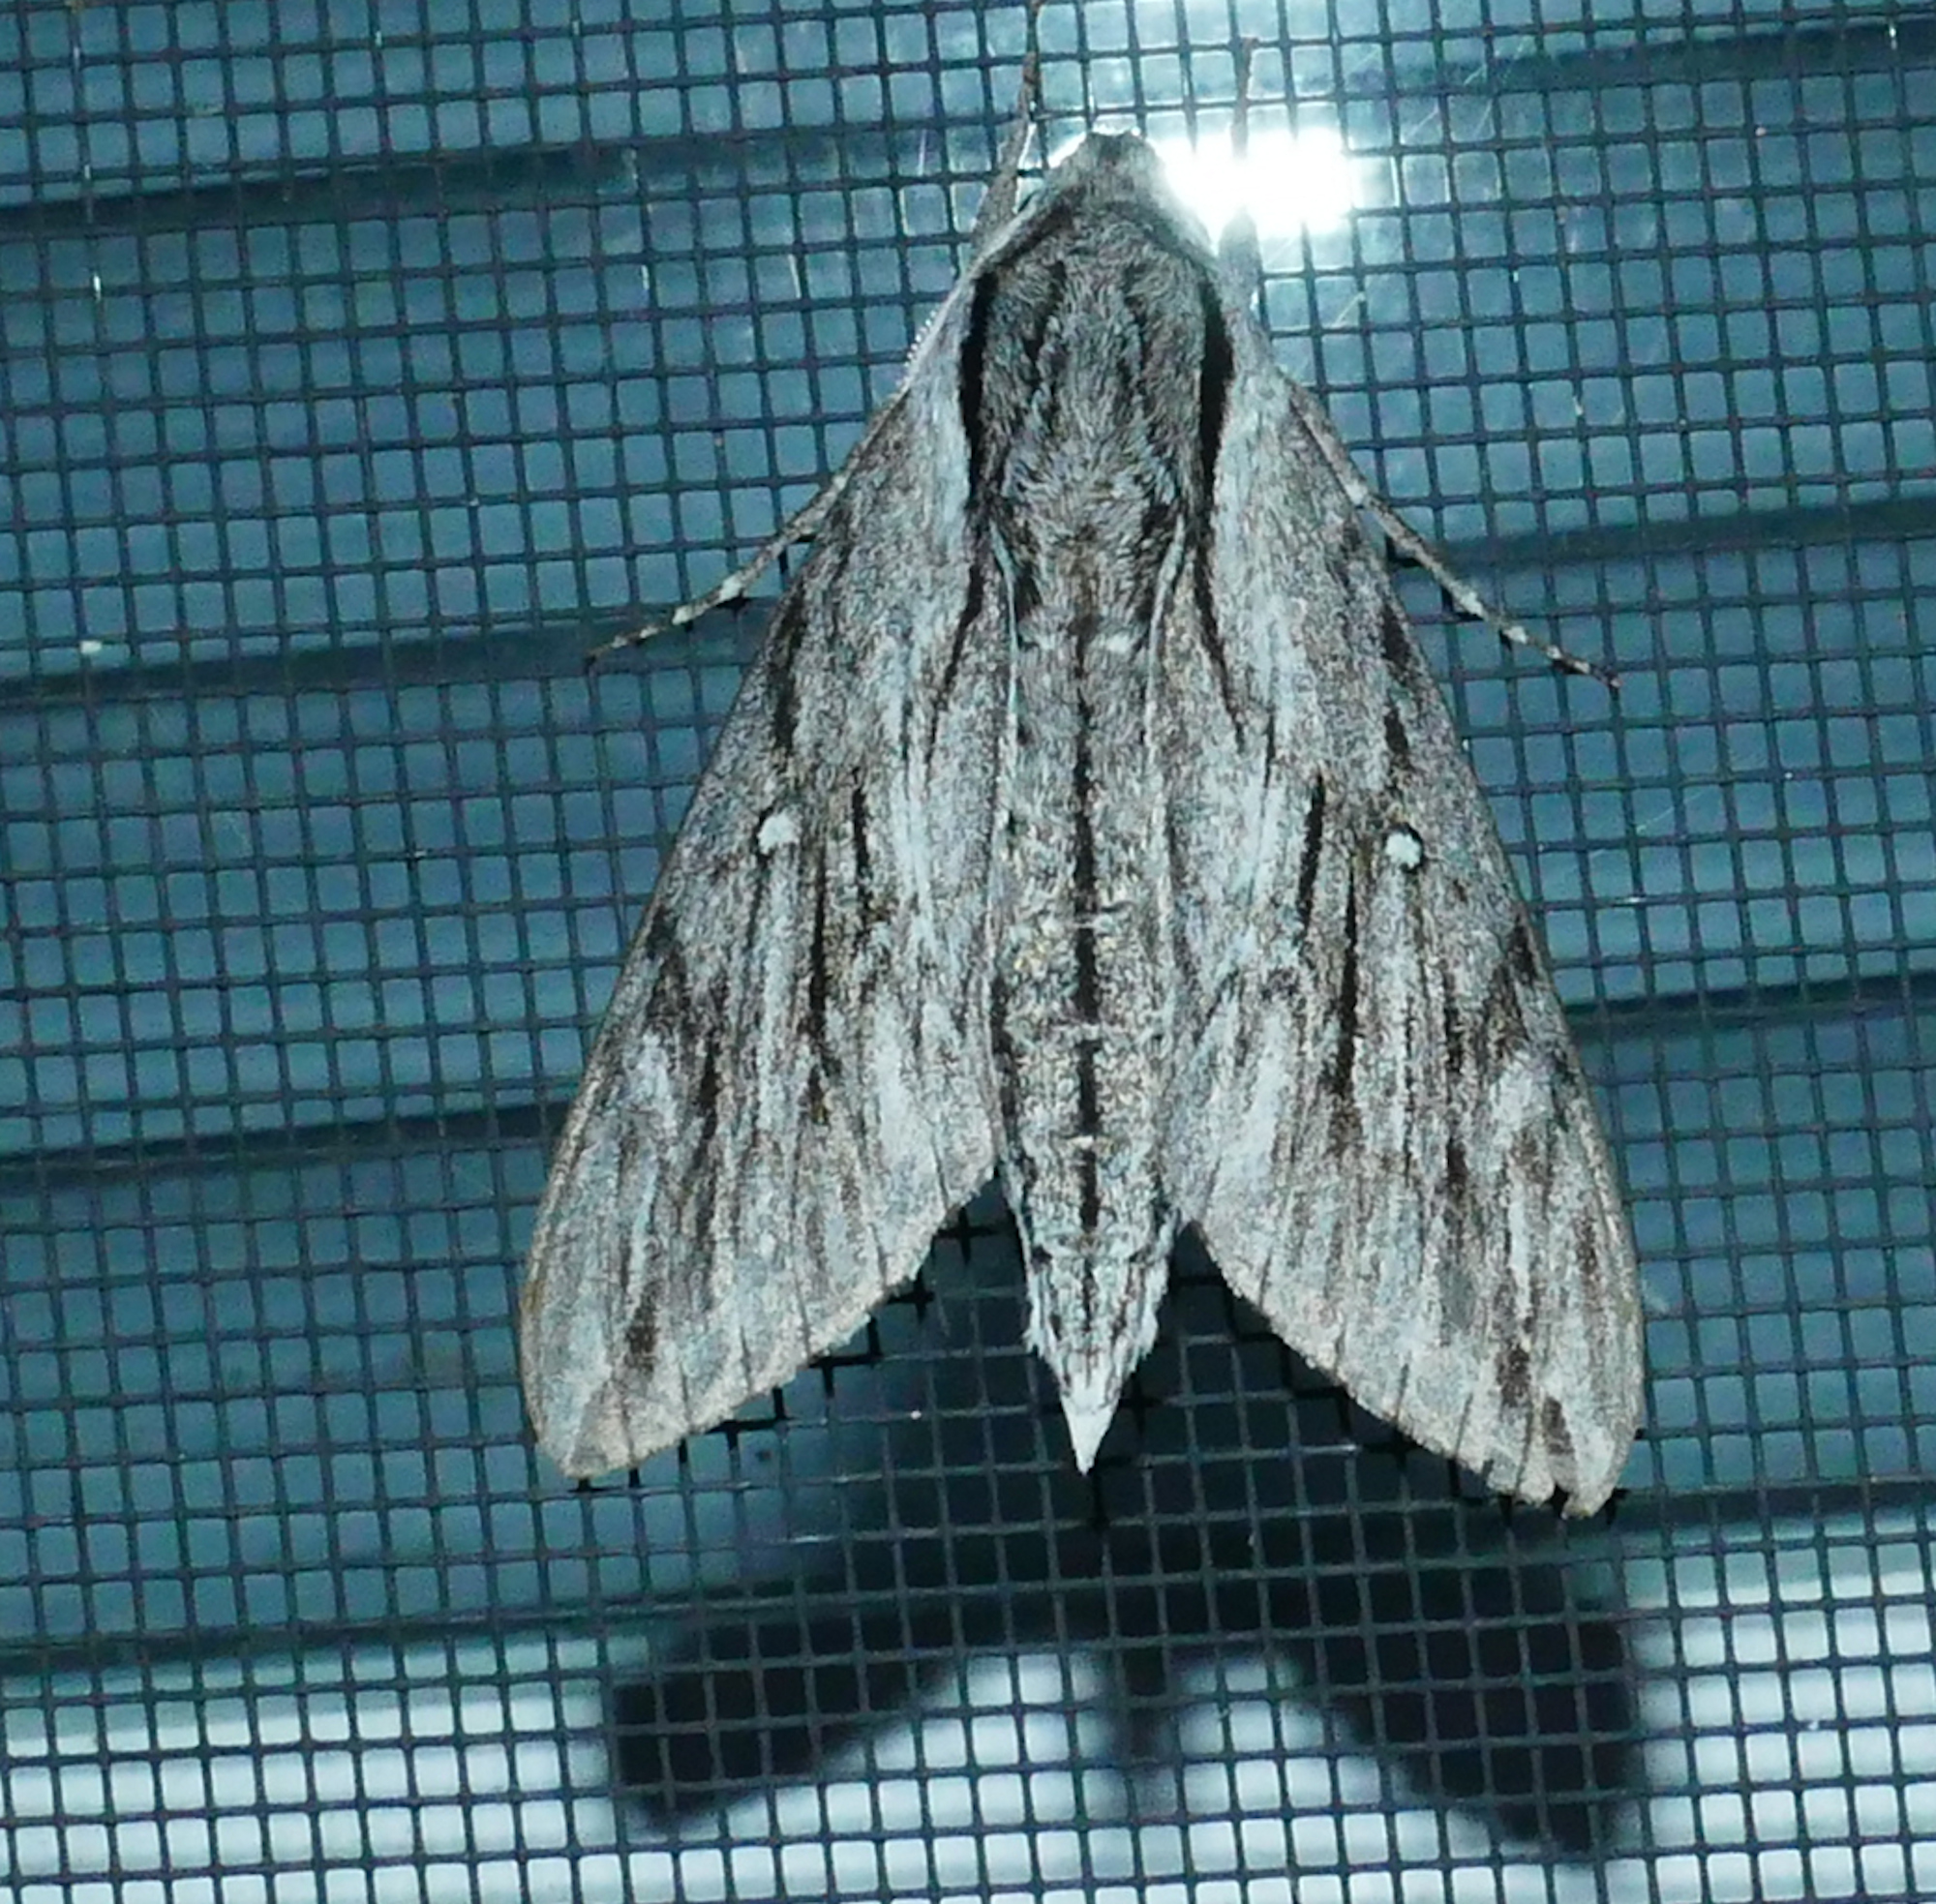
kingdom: Animalia
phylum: Arthropoda
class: Insecta
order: Lepidoptera
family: Sphingidae
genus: Paratrea
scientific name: Paratrea plebeja
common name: Plebian sphinx
